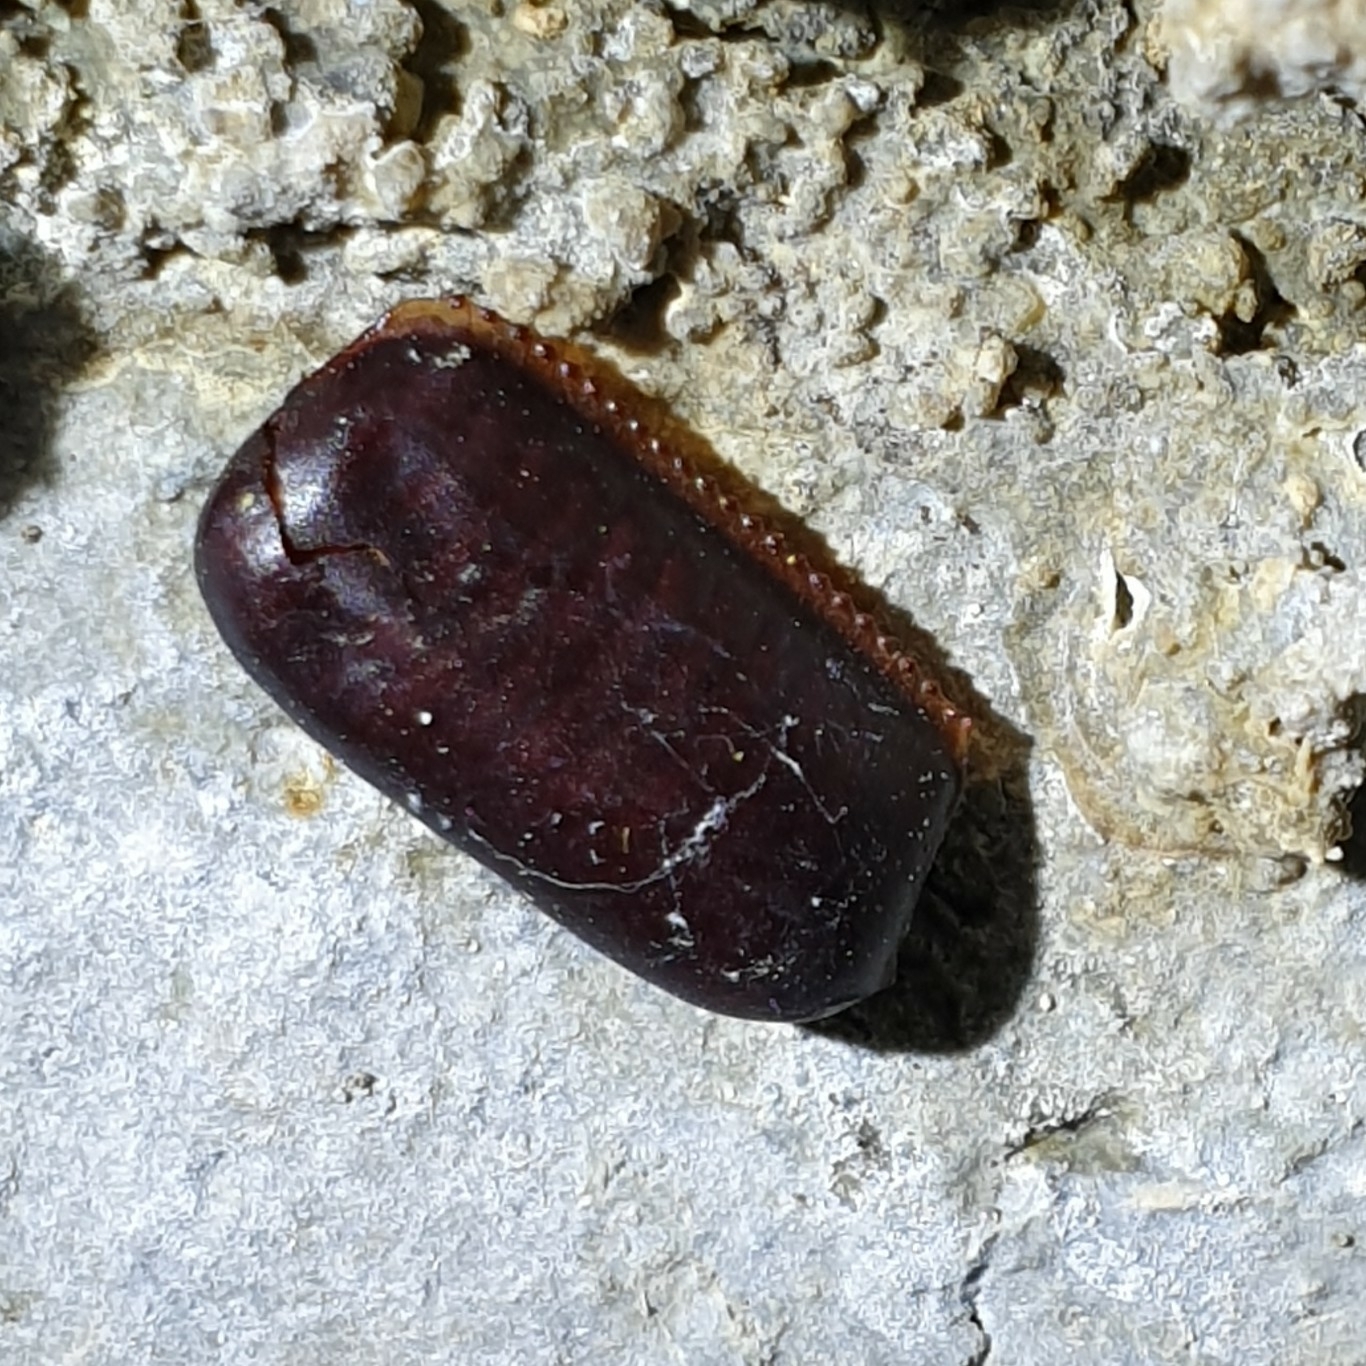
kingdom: Animalia
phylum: Arthropoda
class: Insecta
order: Blattodea
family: Blattidae
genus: Periplaneta
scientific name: Periplaneta australasiae
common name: Australian cockroach
